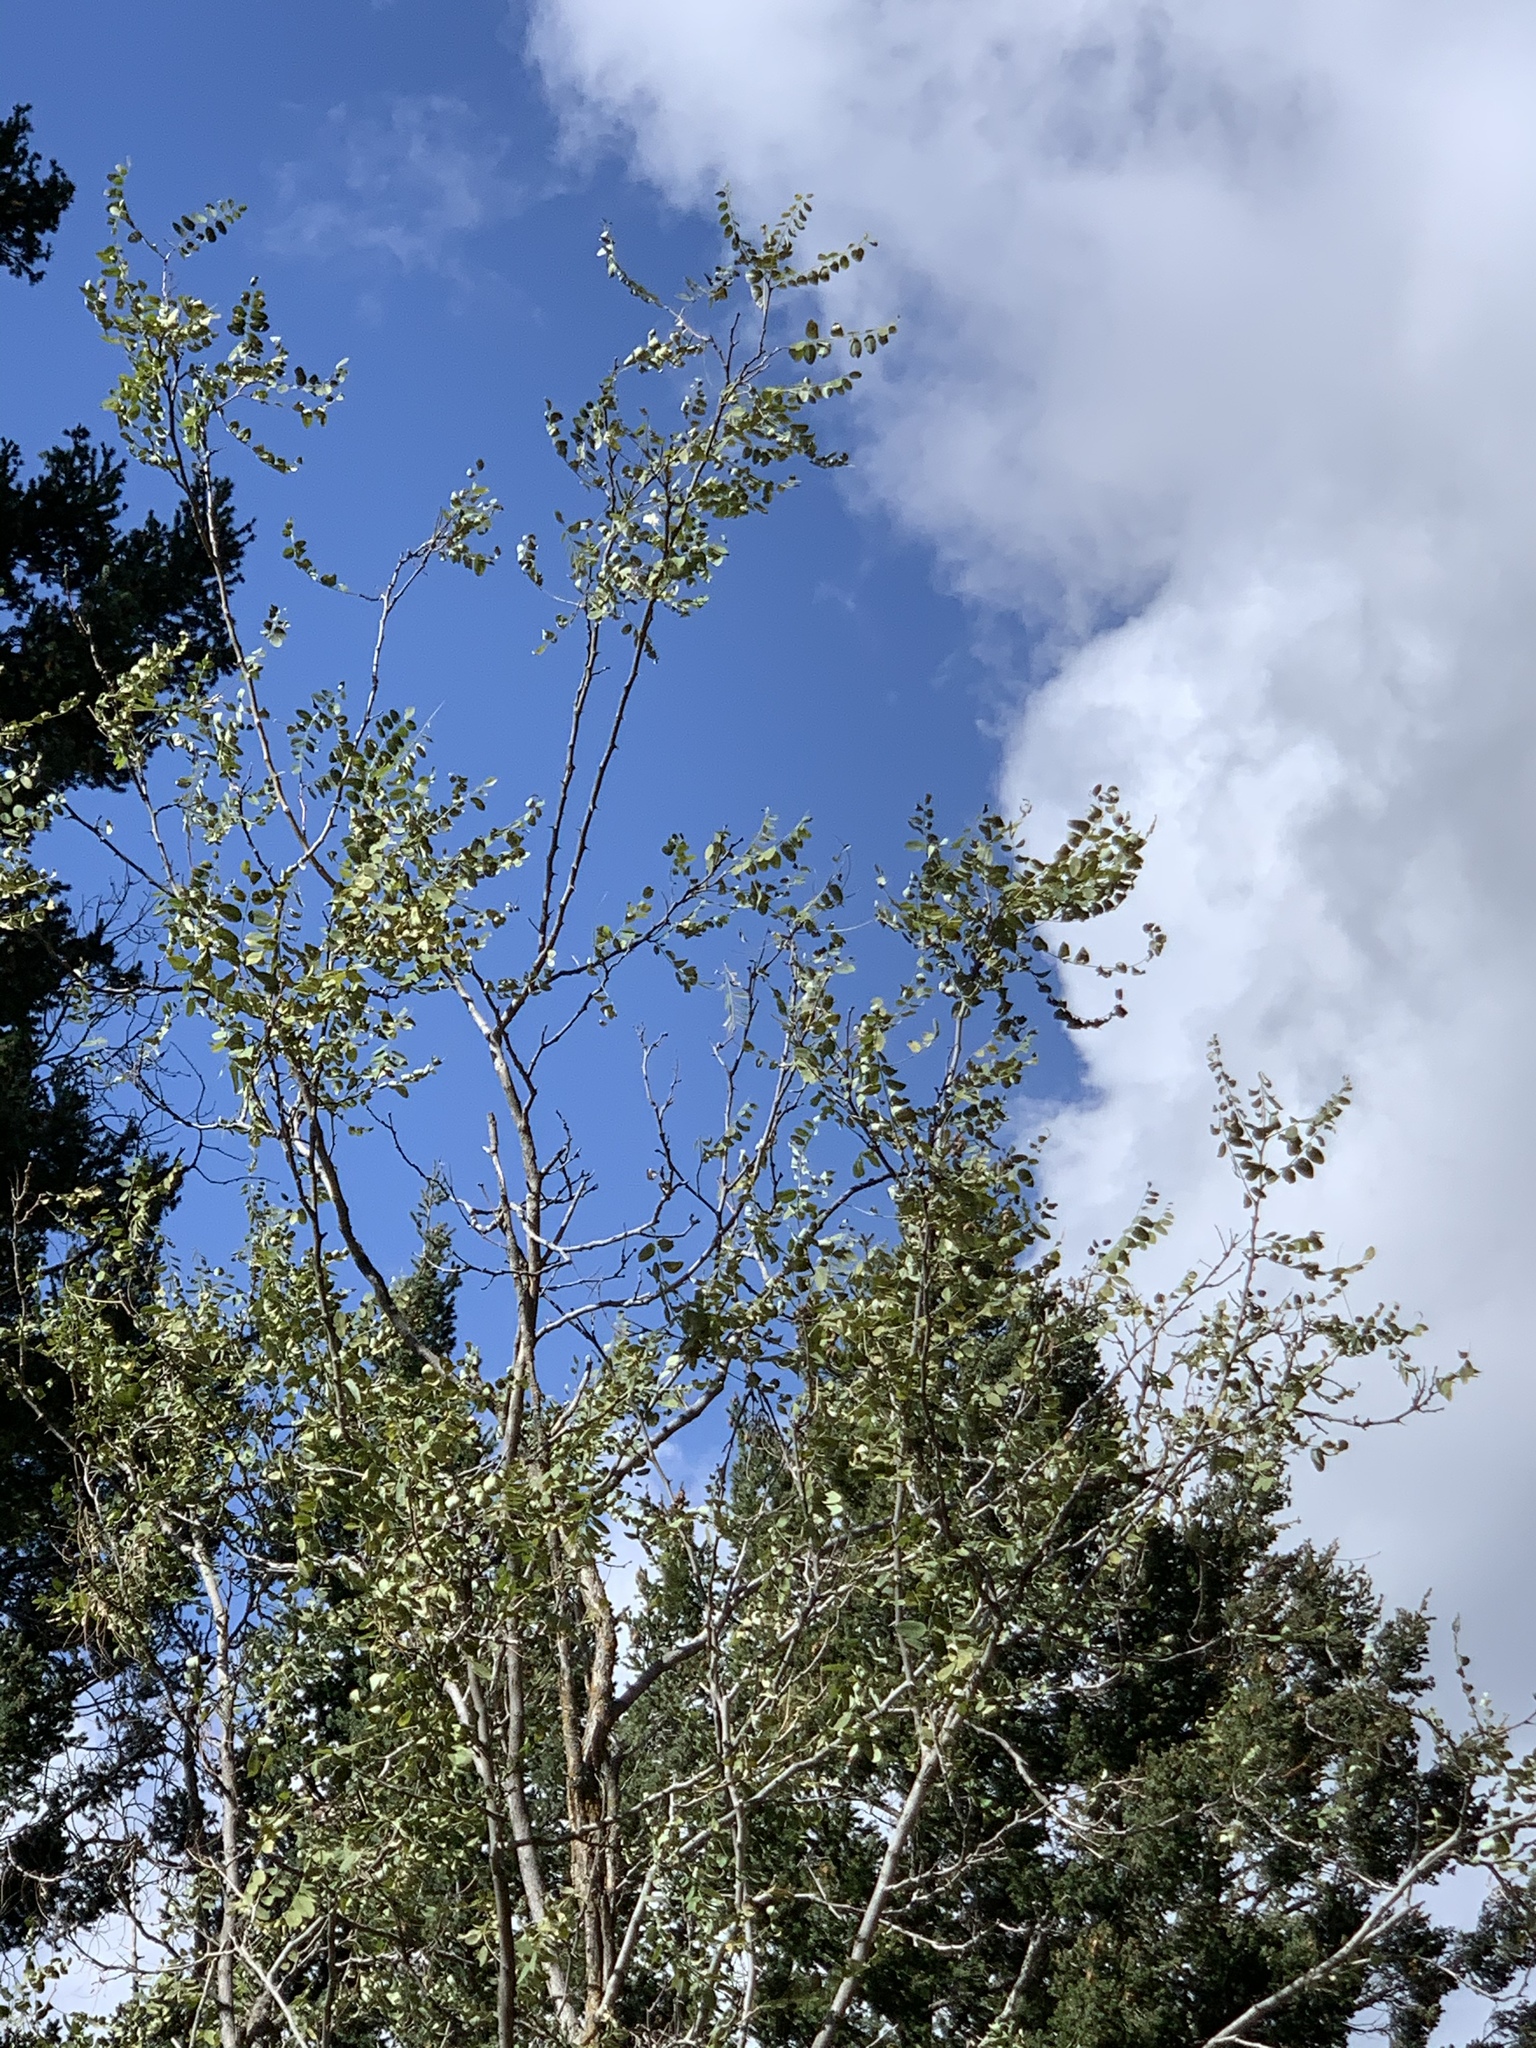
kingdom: Plantae
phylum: Tracheophyta
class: Magnoliopsida
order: Fabales
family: Fabaceae
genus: Robinia
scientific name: Robinia neomexicana
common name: New mexico locust
